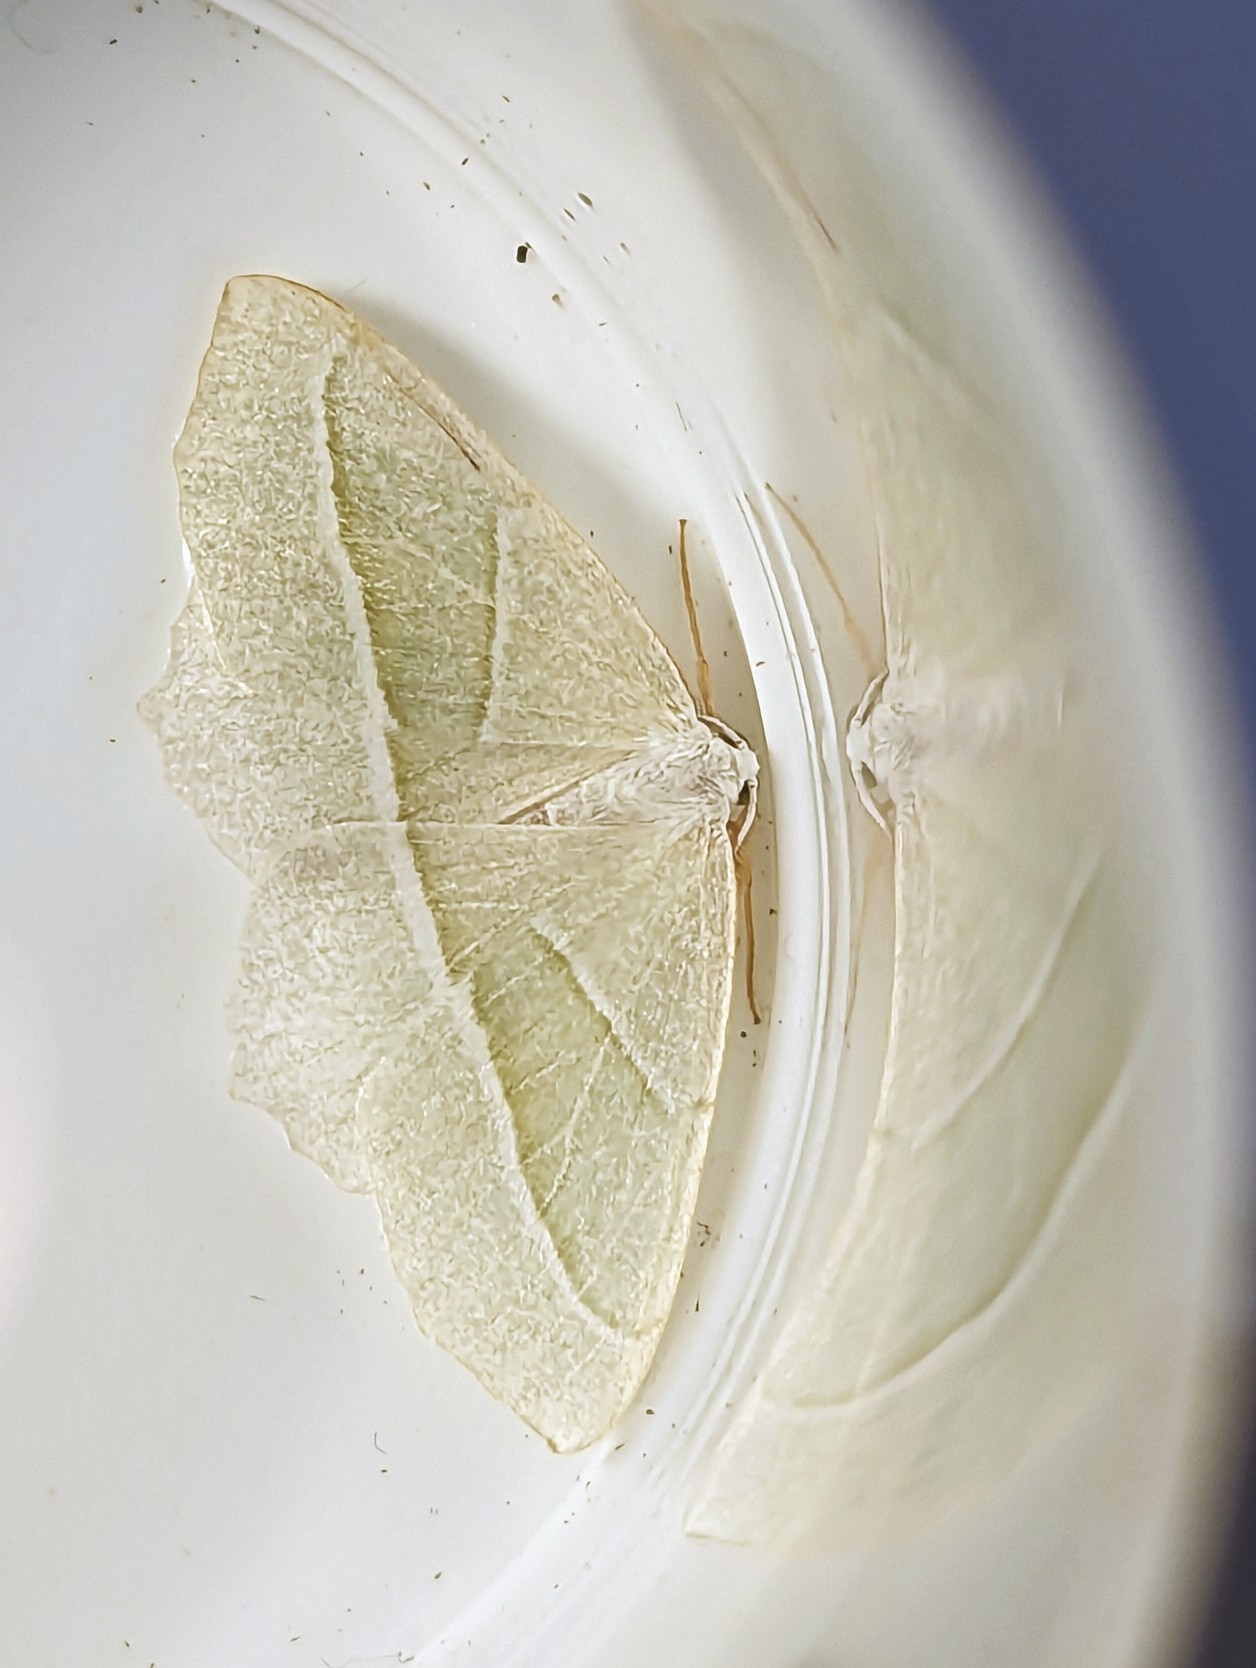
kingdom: Animalia
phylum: Arthropoda
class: Insecta
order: Lepidoptera
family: Geometridae
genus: Campaea
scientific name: Campaea margaritaria
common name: Light emerald
